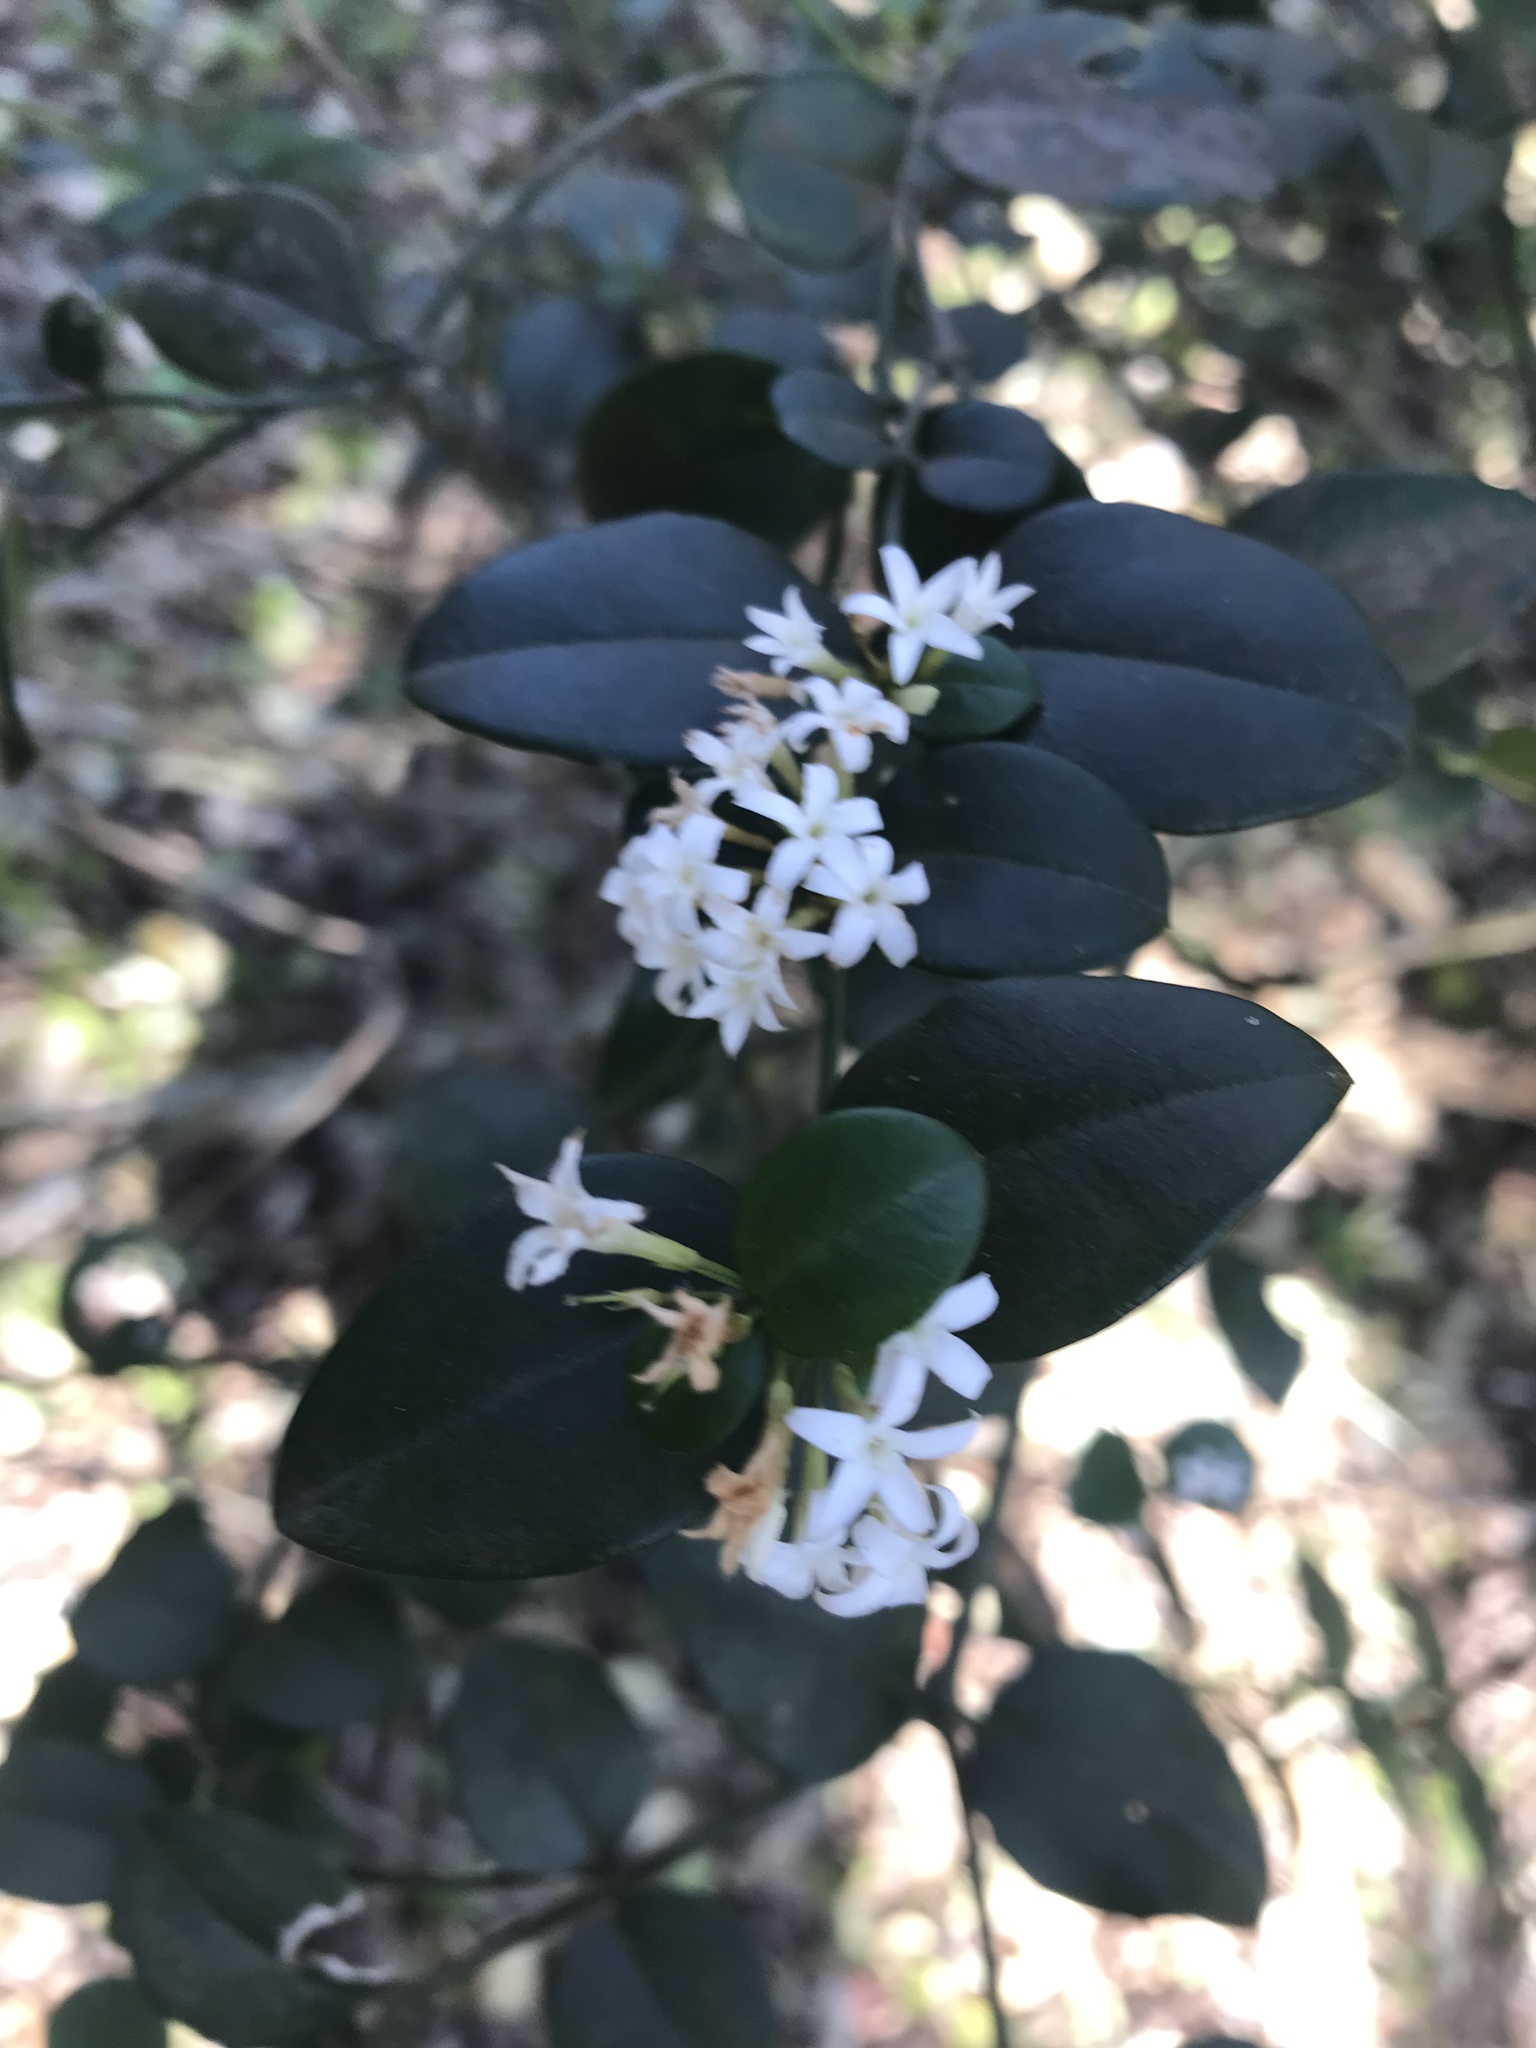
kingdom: Plantae
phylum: Tracheophyta
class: Magnoliopsida
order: Gentianales
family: Apocynaceae
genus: Carissa
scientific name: Carissa bispinosa
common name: Forest num-num
